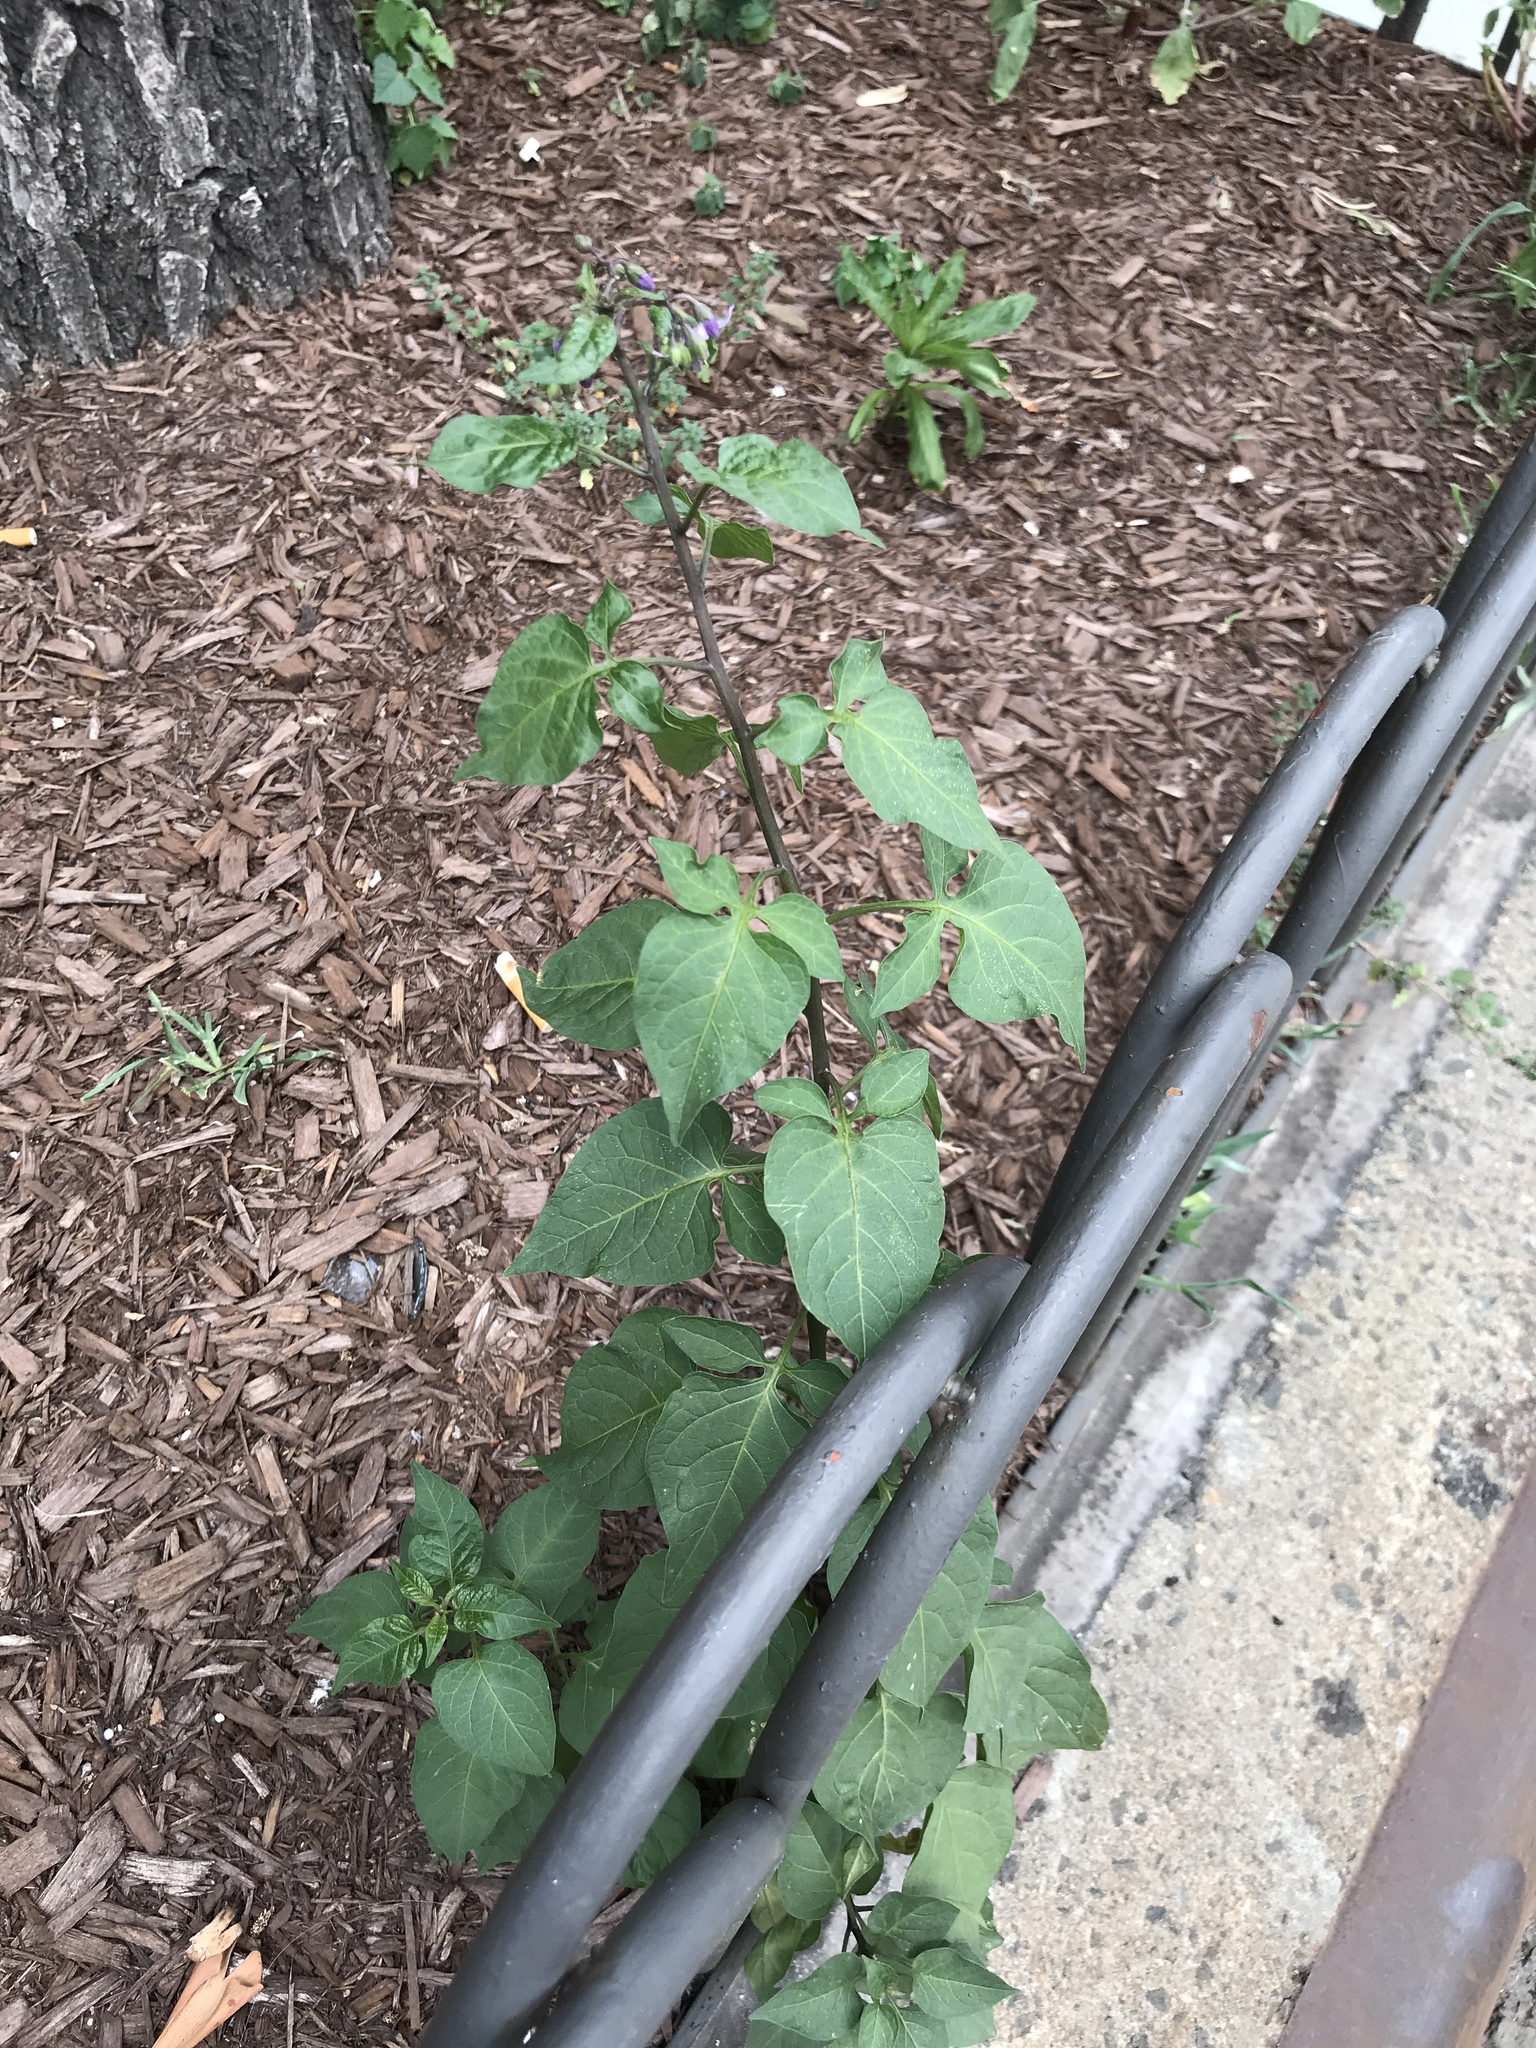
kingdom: Plantae
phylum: Tracheophyta
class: Magnoliopsida
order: Solanales
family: Solanaceae
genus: Solanum
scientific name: Solanum dulcamara
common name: Climbing nightshade
